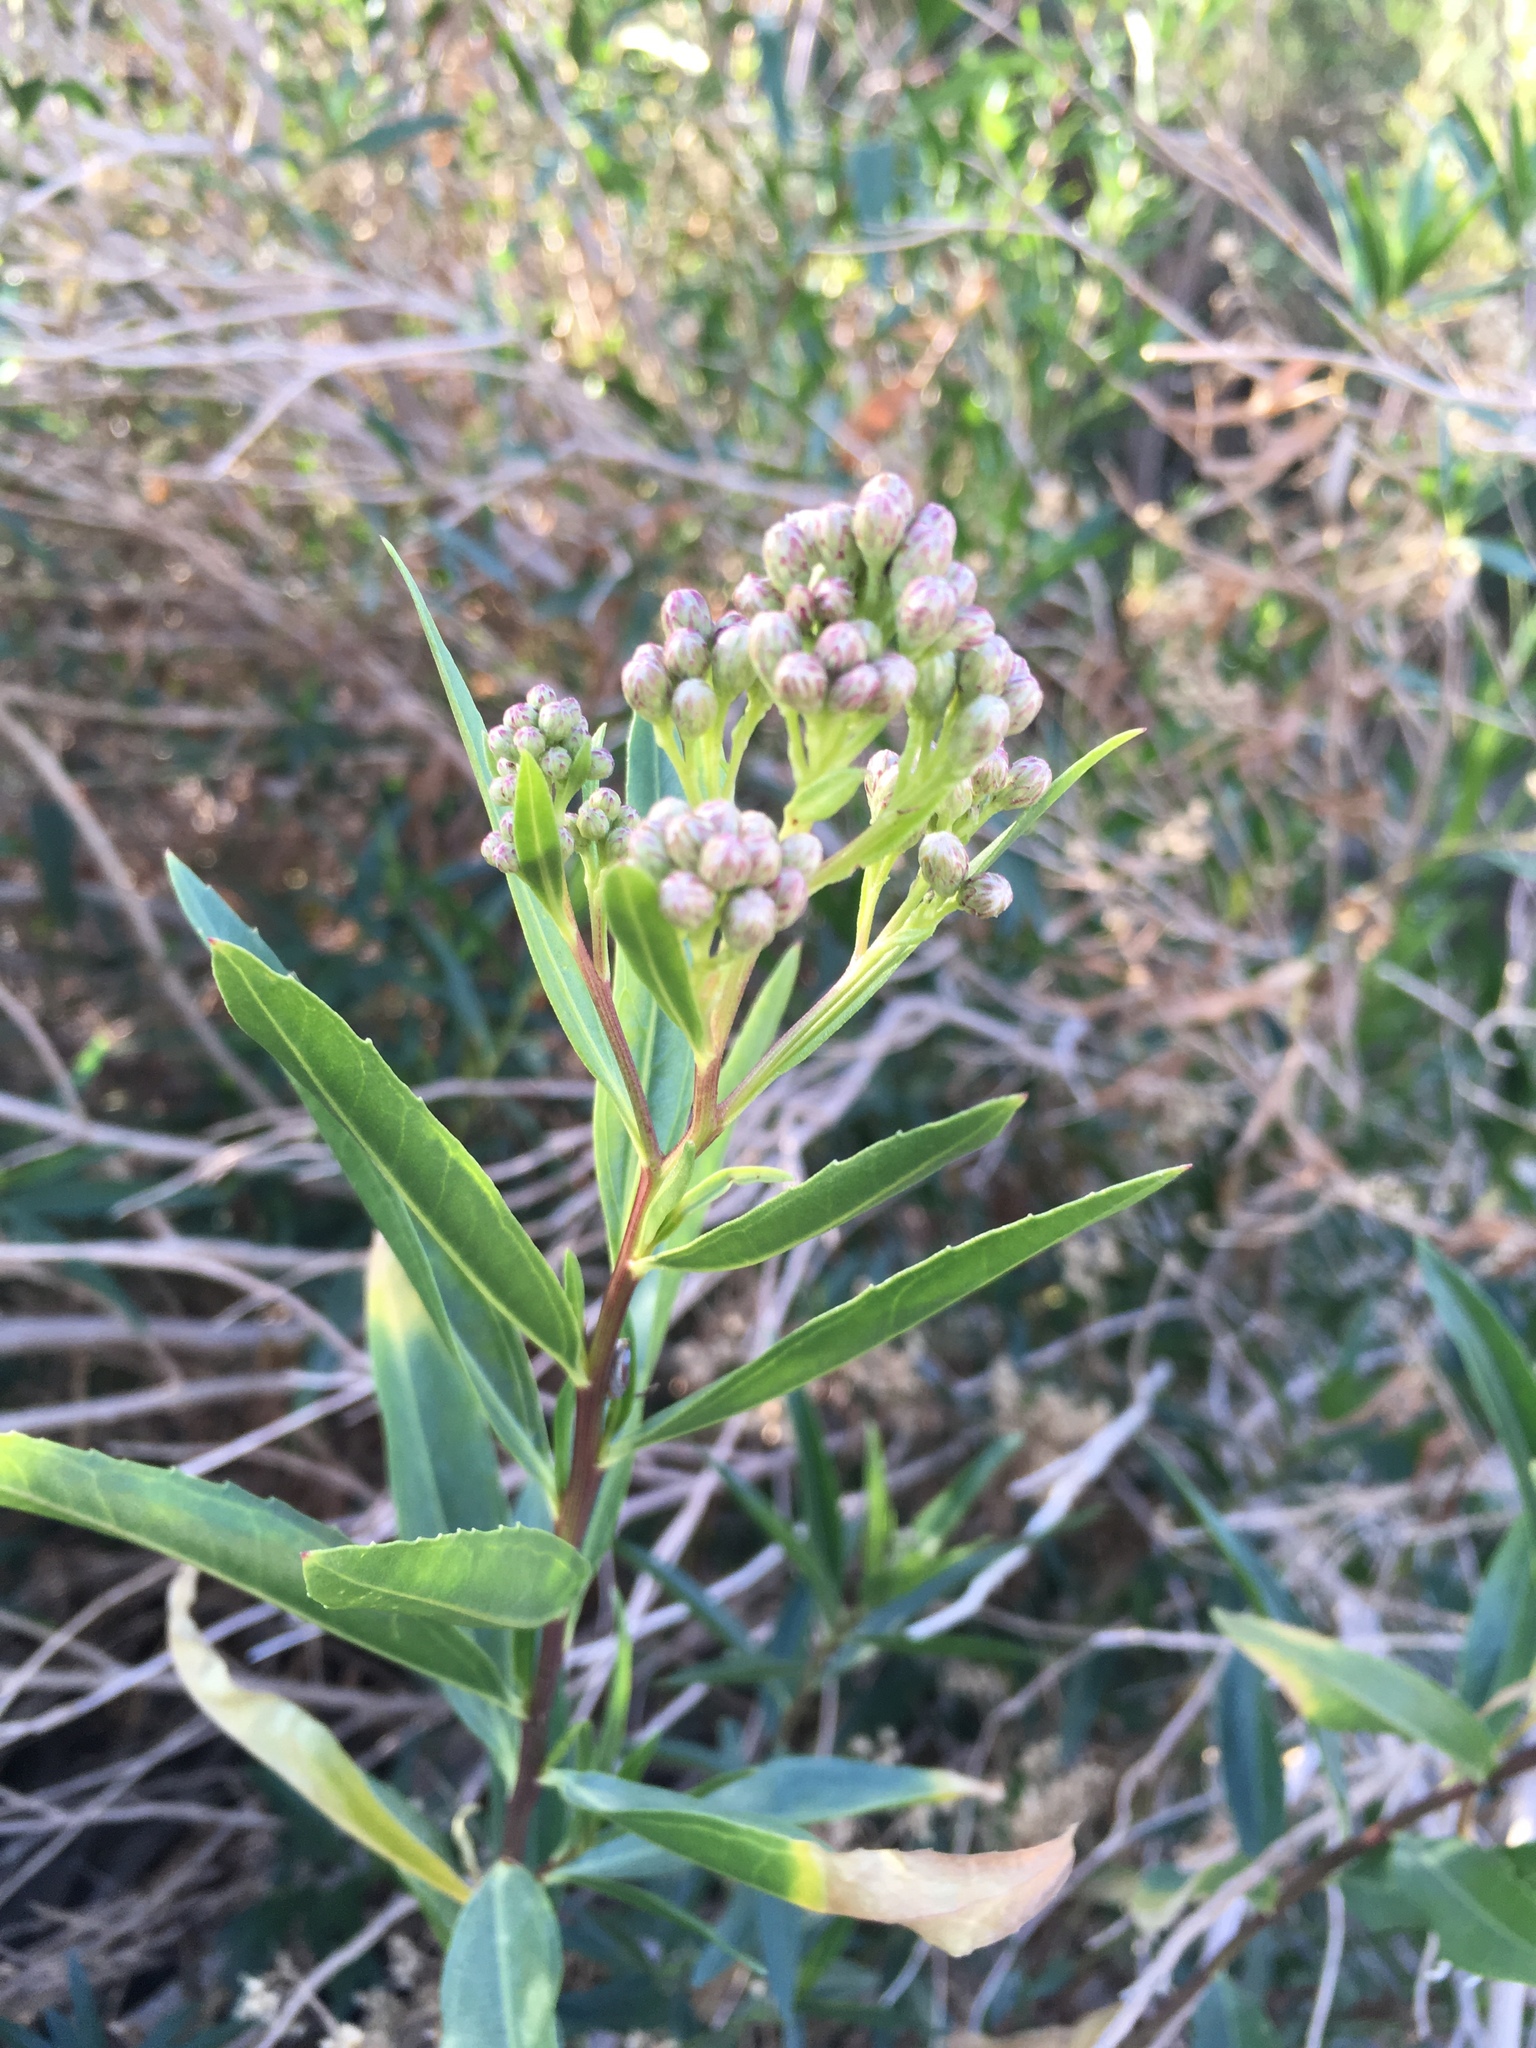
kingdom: Plantae
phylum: Tracheophyta
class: Magnoliopsida
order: Asterales
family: Asteraceae
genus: Baccharis
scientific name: Baccharis salicifolia
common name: Sticky baccharis
